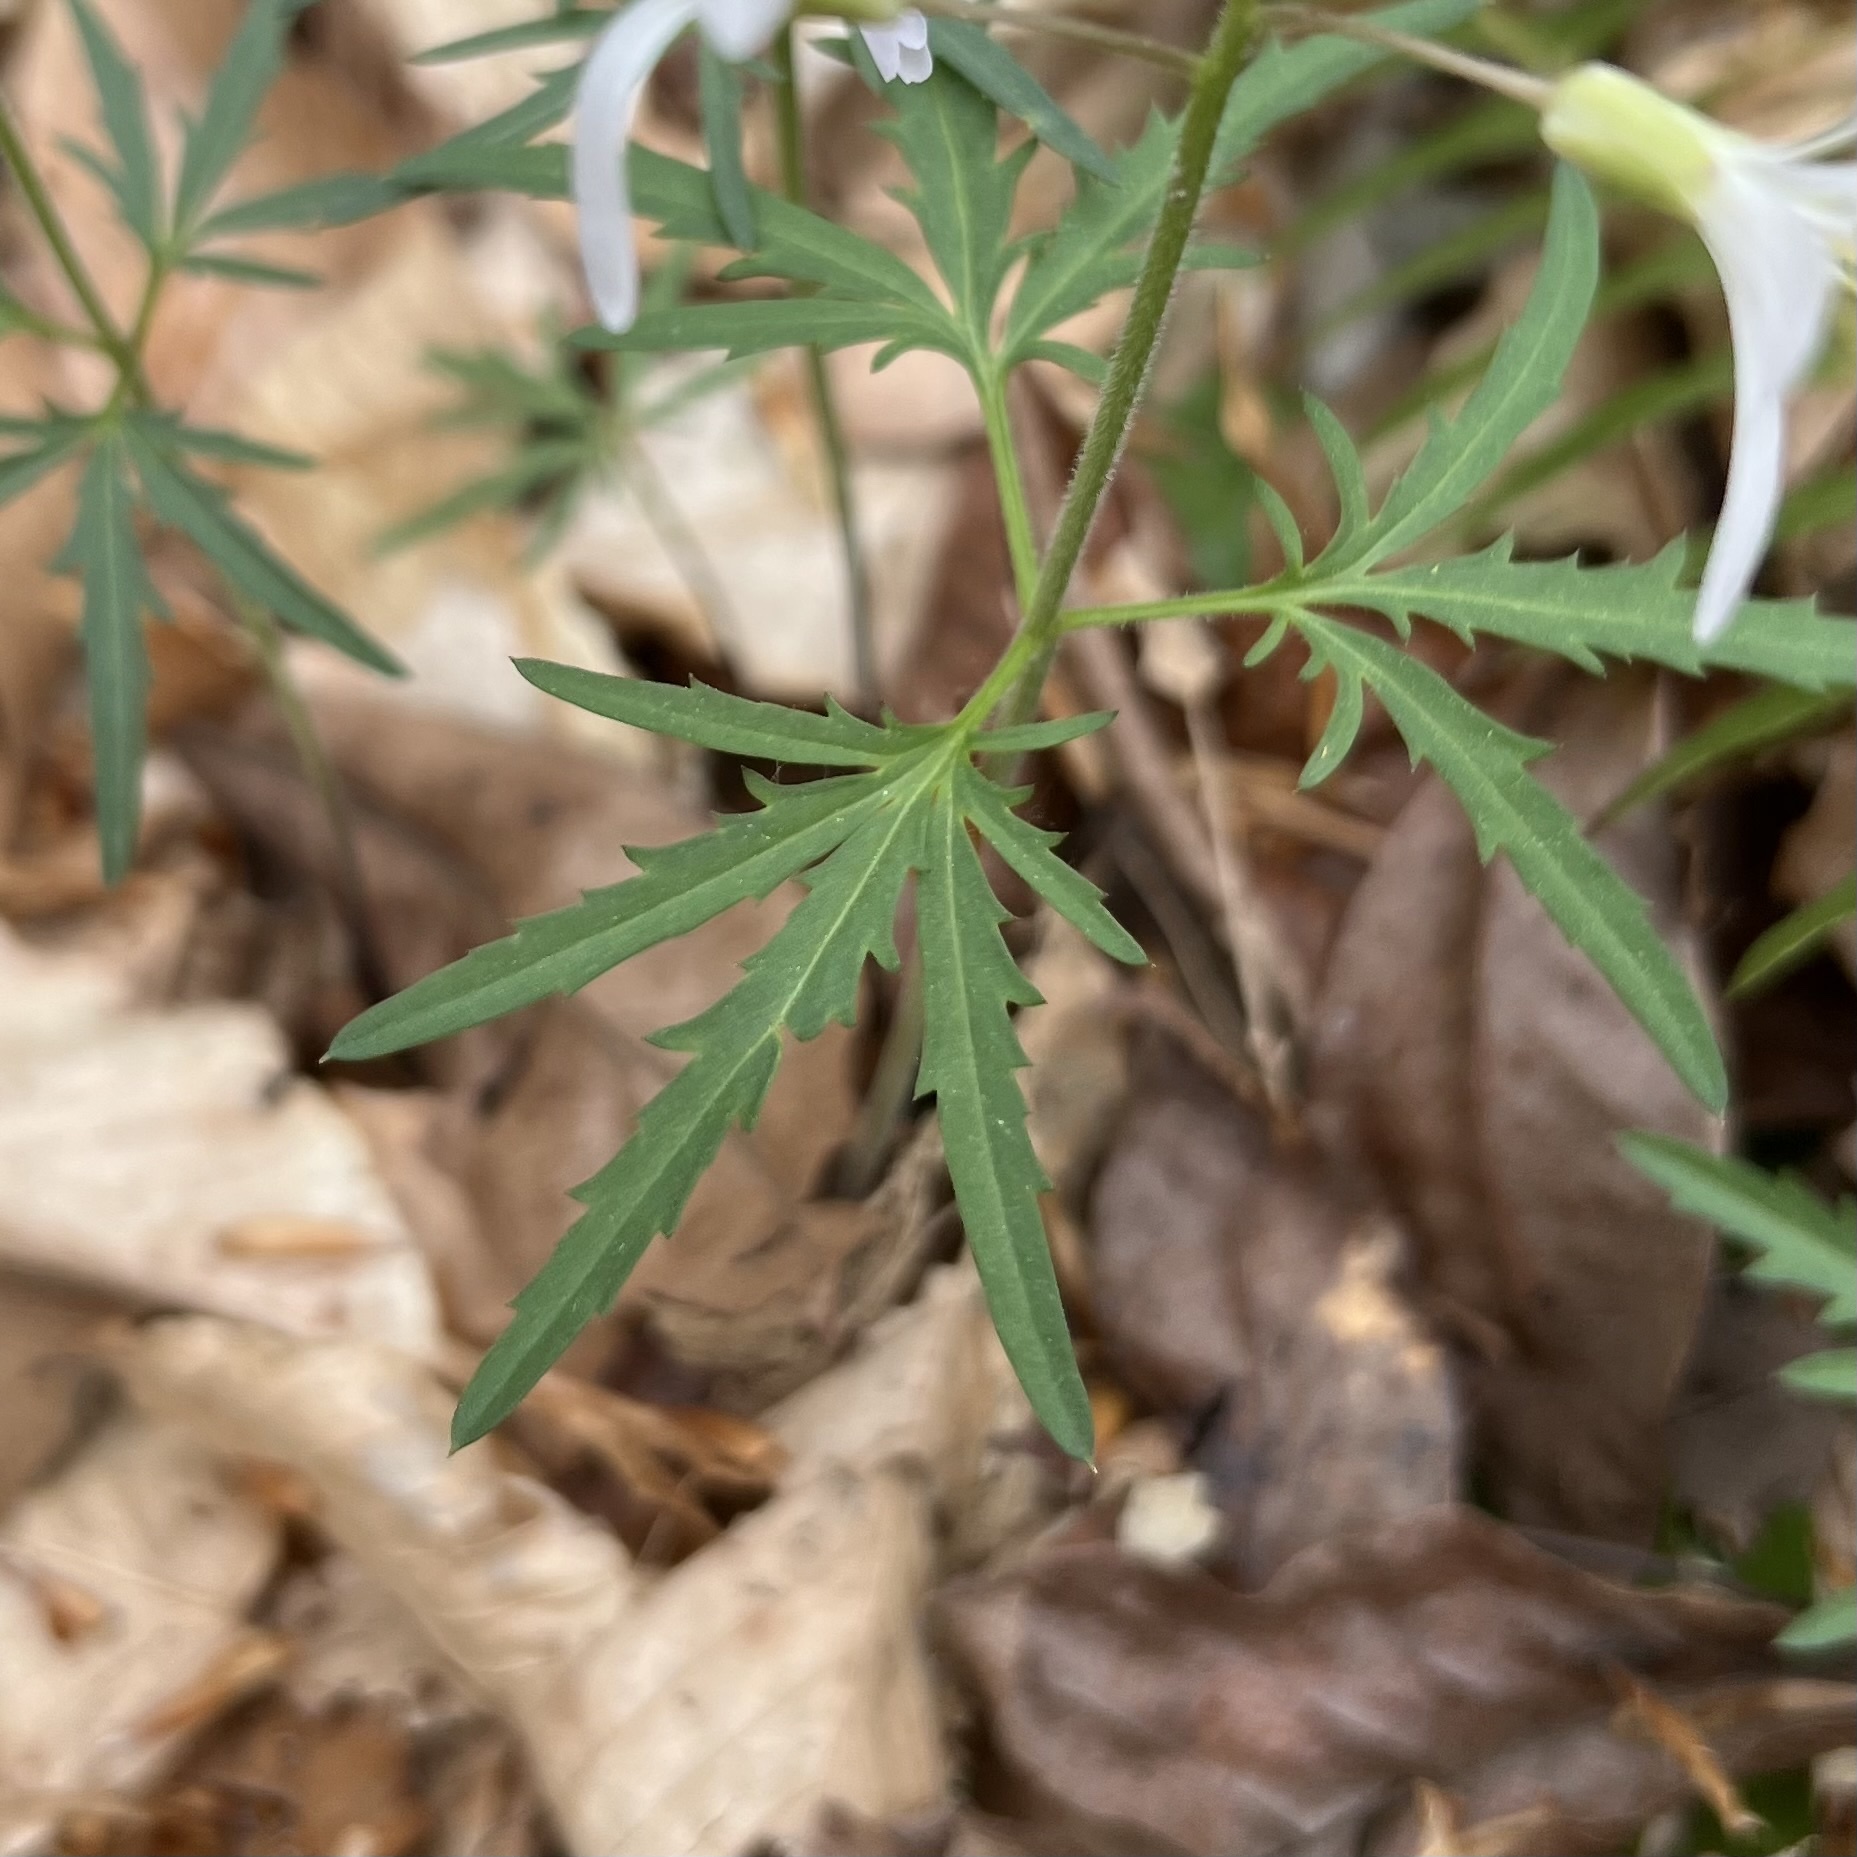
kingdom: Plantae
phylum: Tracheophyta
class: Magnoliopsida
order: Brassicales
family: Brassicaceae
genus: Cardamine
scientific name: Cardamine concatenata
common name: Cut-leaf toothcup
